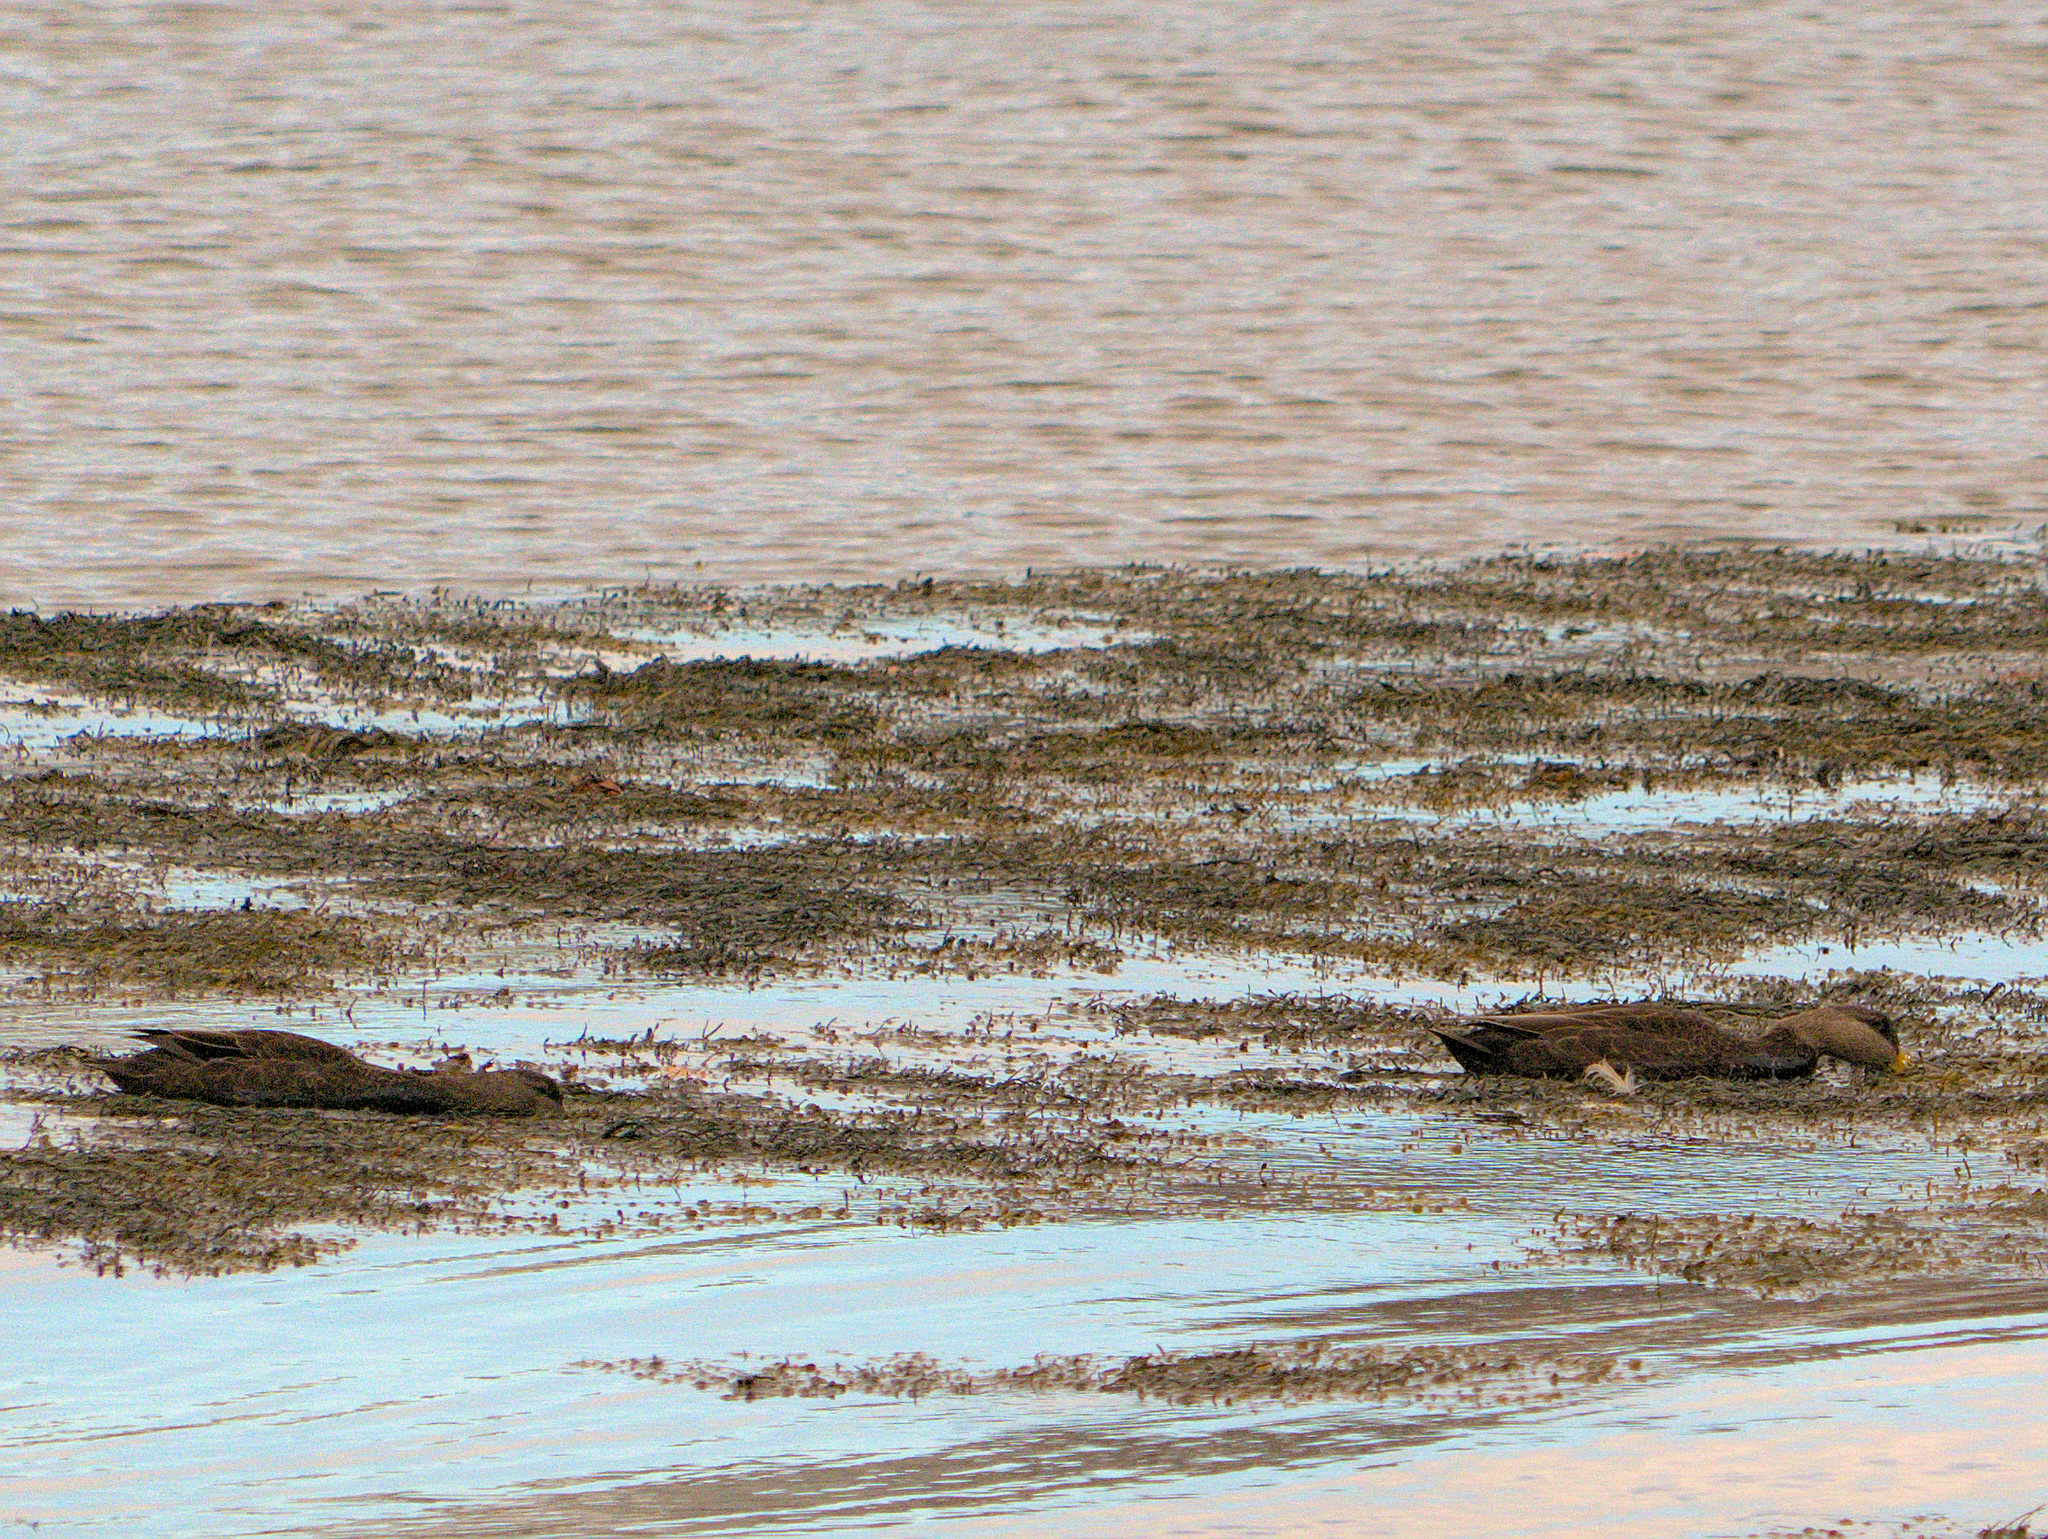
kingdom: Animalia
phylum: Chordata
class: Aves
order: Anseriformes
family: Anatidae
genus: Anas
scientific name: Anas rubripes
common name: American black duck
